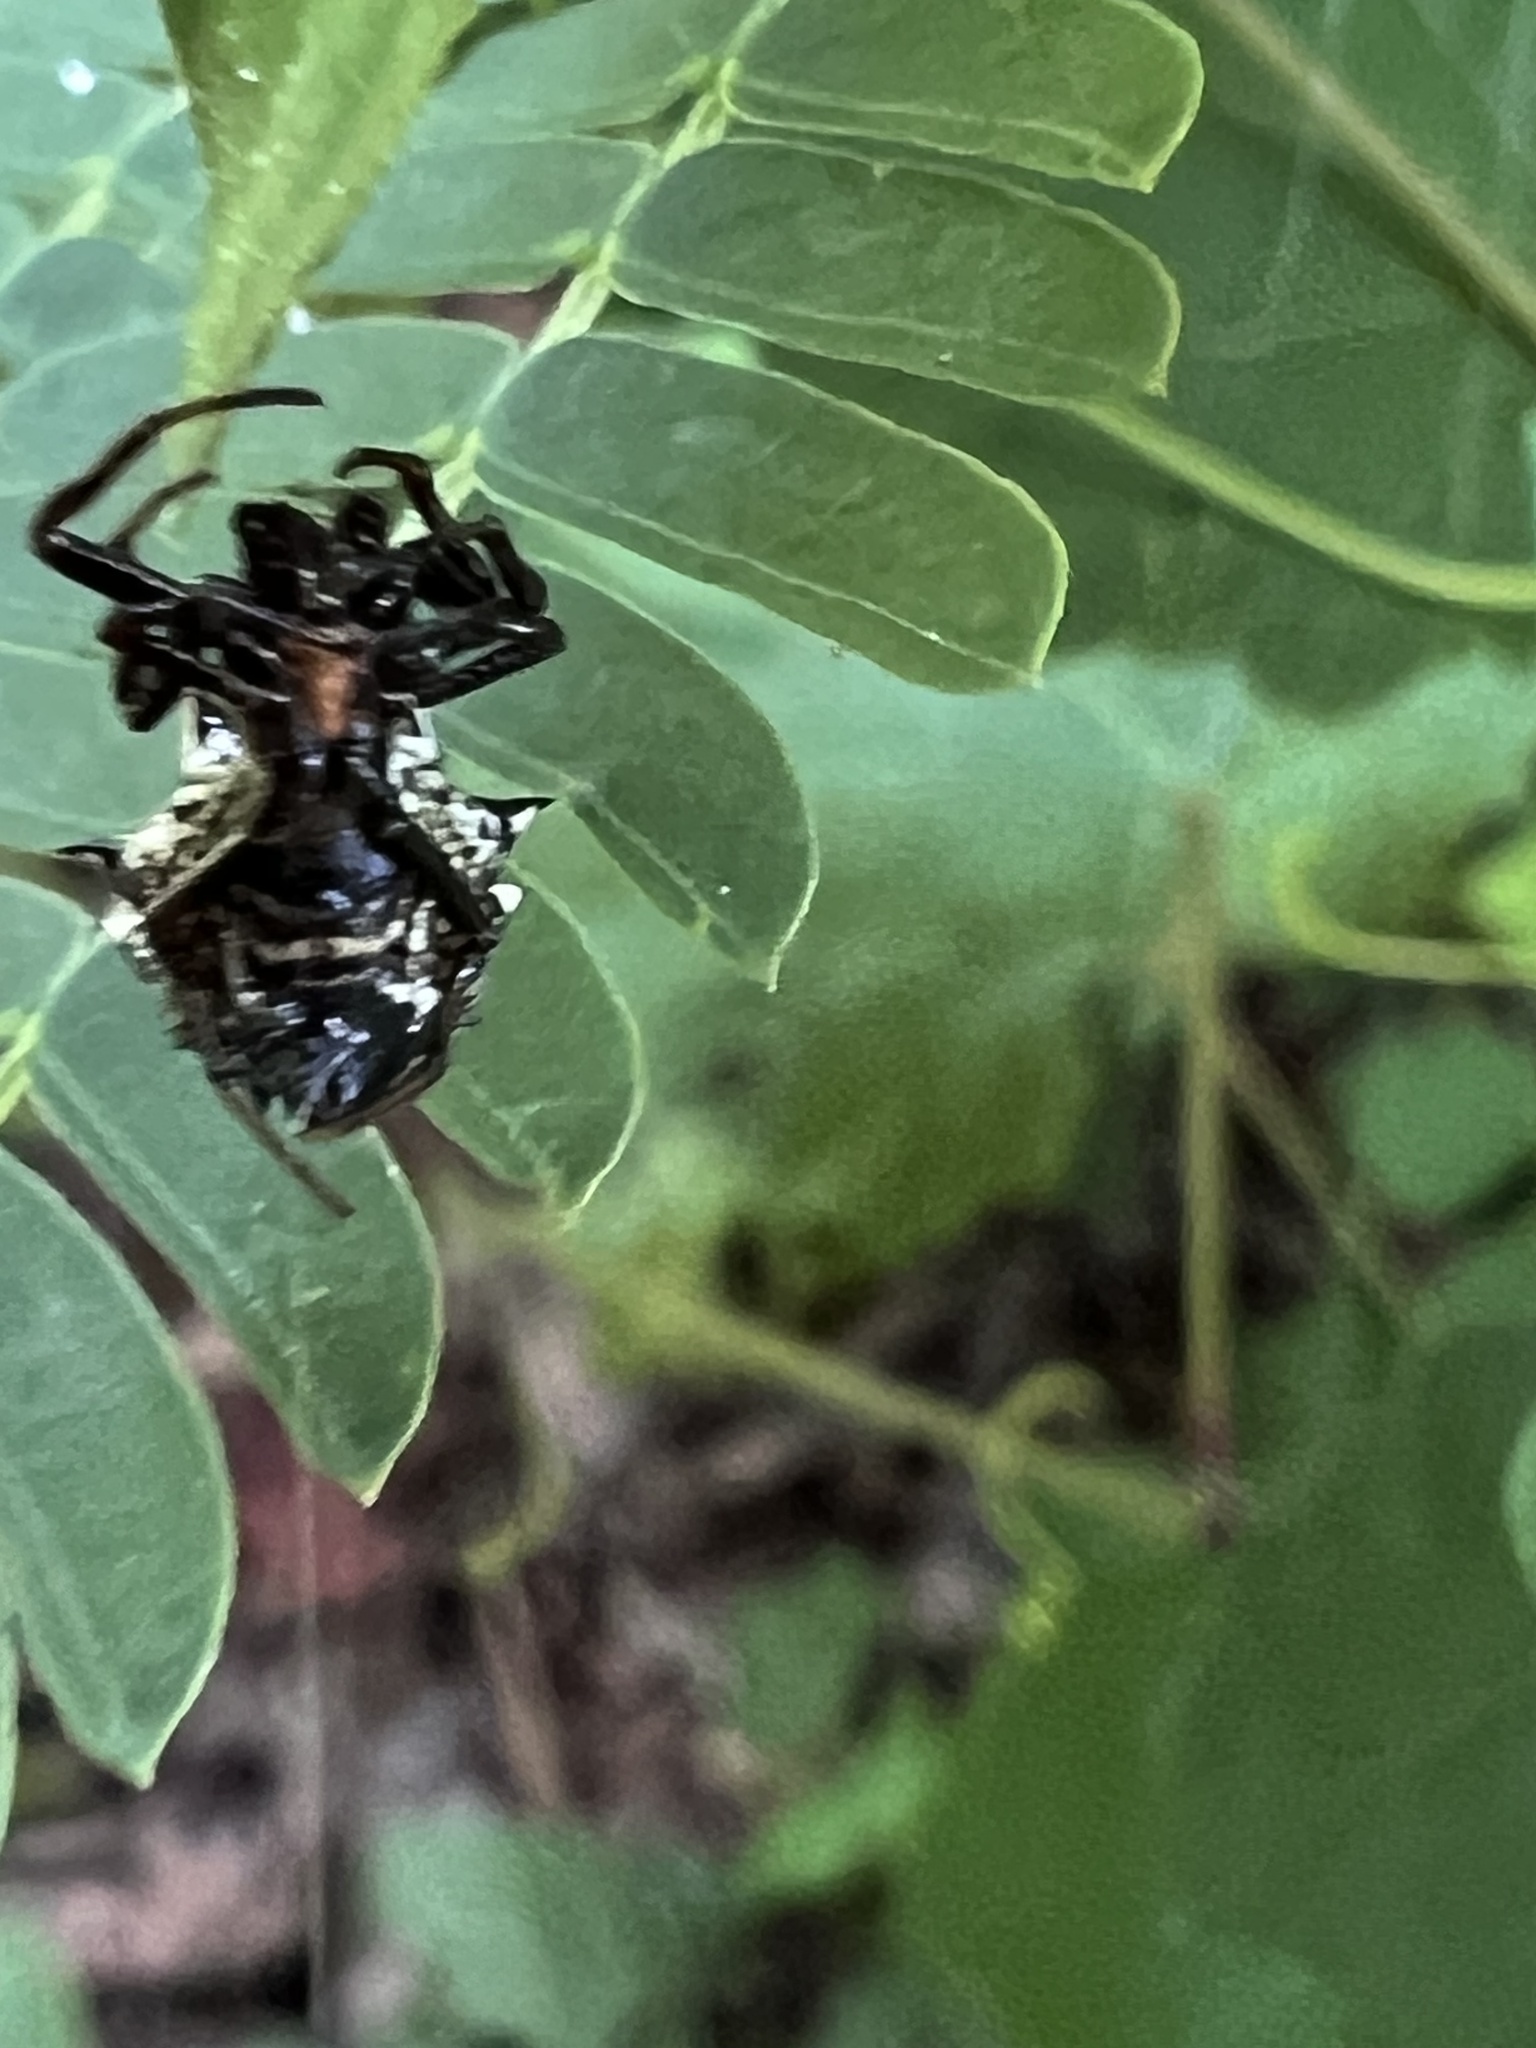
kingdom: Animalia
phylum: Arthropoda
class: Arachnida
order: Araneae
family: Araneidae
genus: Micrathena
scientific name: Micrathena gracilis
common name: Orb weavers
